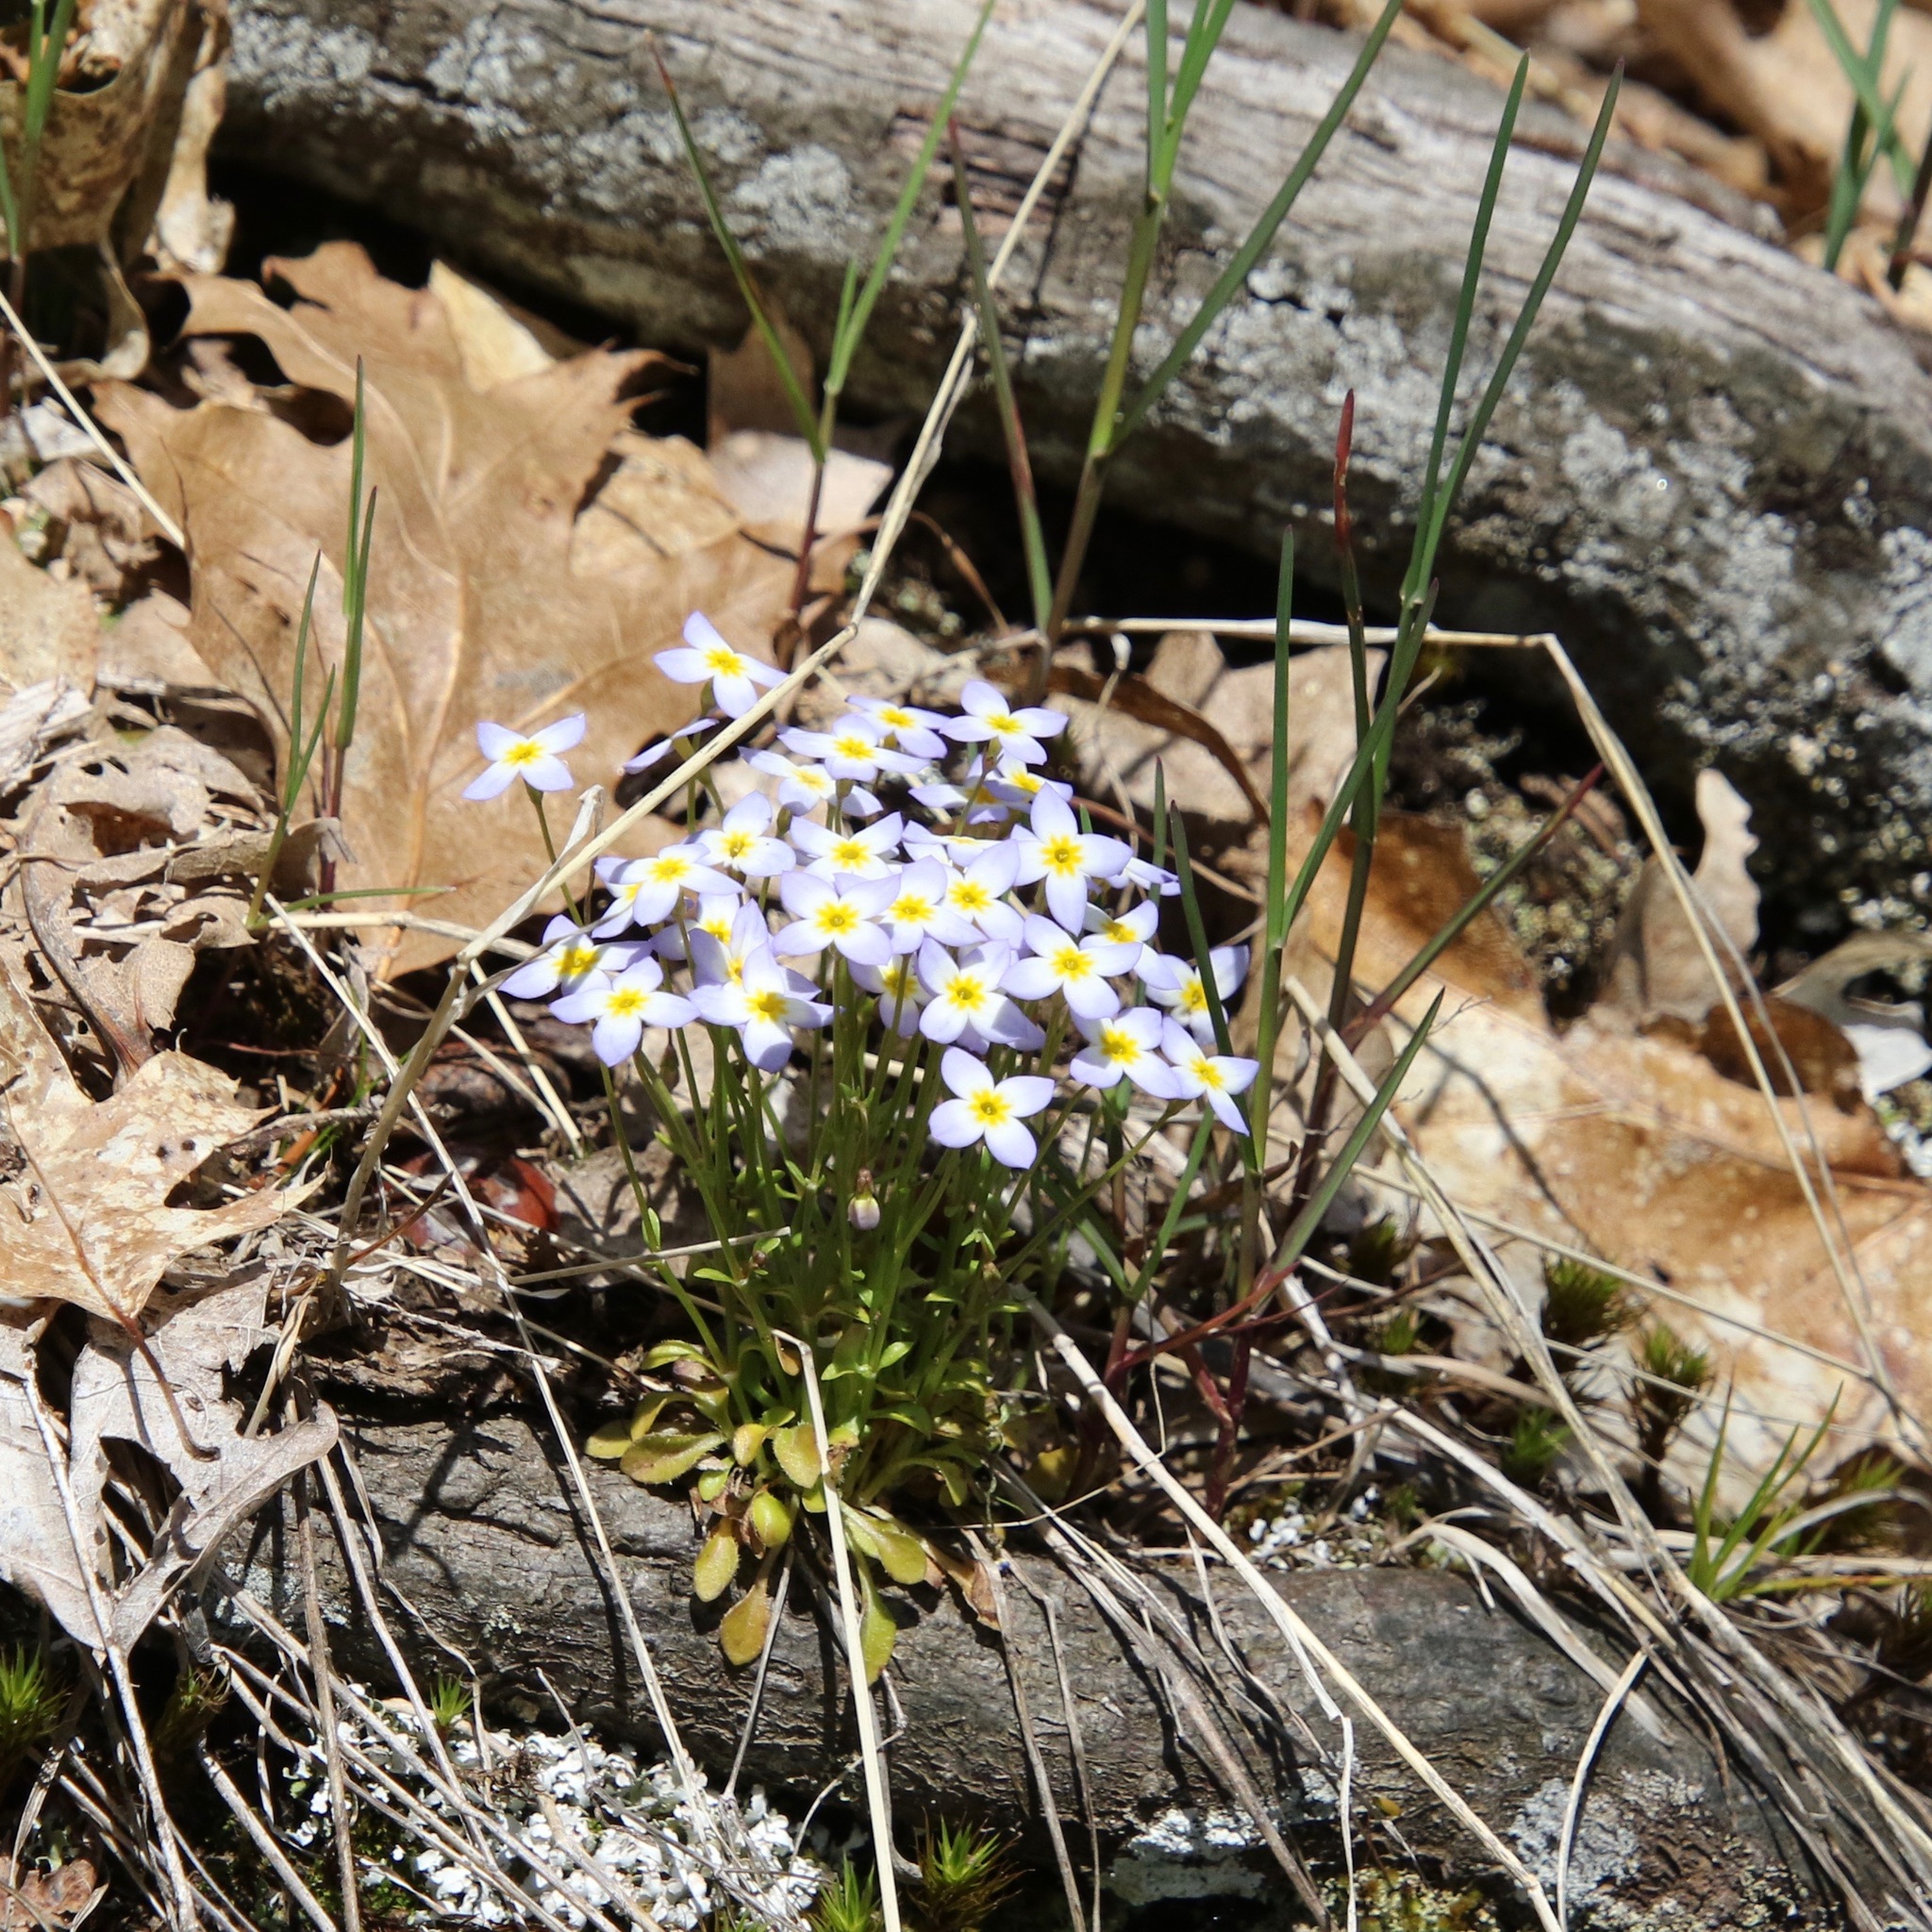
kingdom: Plantae
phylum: Tracheophyta
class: Magnoliopsida
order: Gentianales
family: Rubiaceae
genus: Houstonia
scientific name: Houstonia caerulea
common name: Bluets
